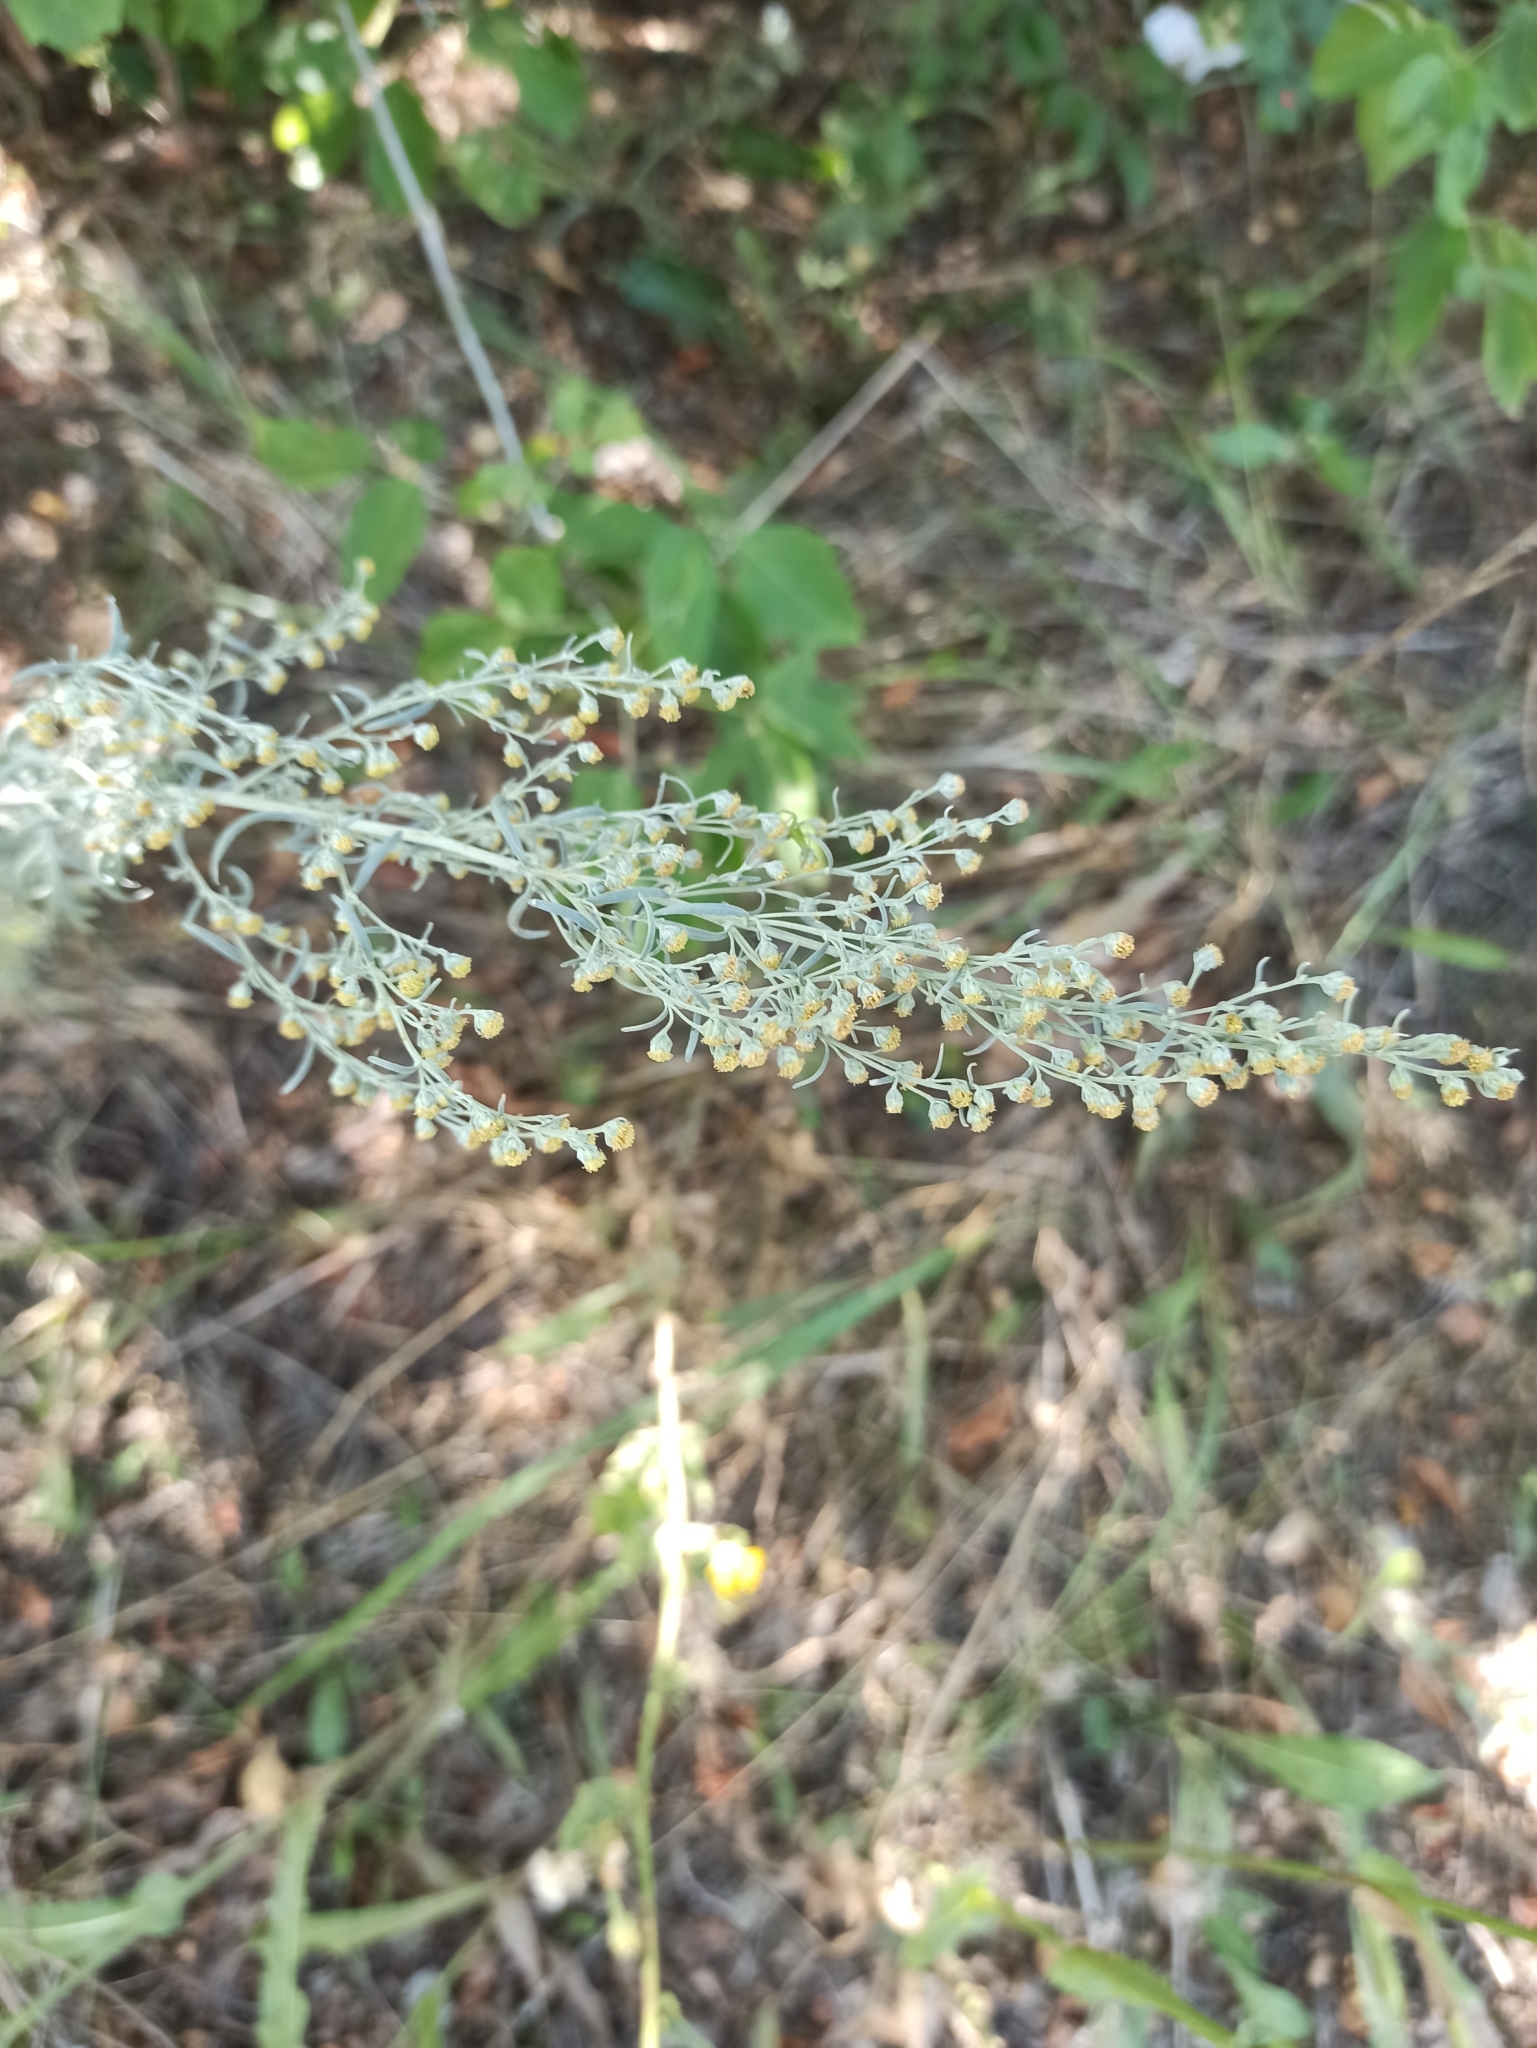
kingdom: Plantae
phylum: Tracheophyta
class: Magnoliopsida
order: Asterales
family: Asteraceae
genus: Artemisia
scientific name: Artemisia absinthium
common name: Wormwood
